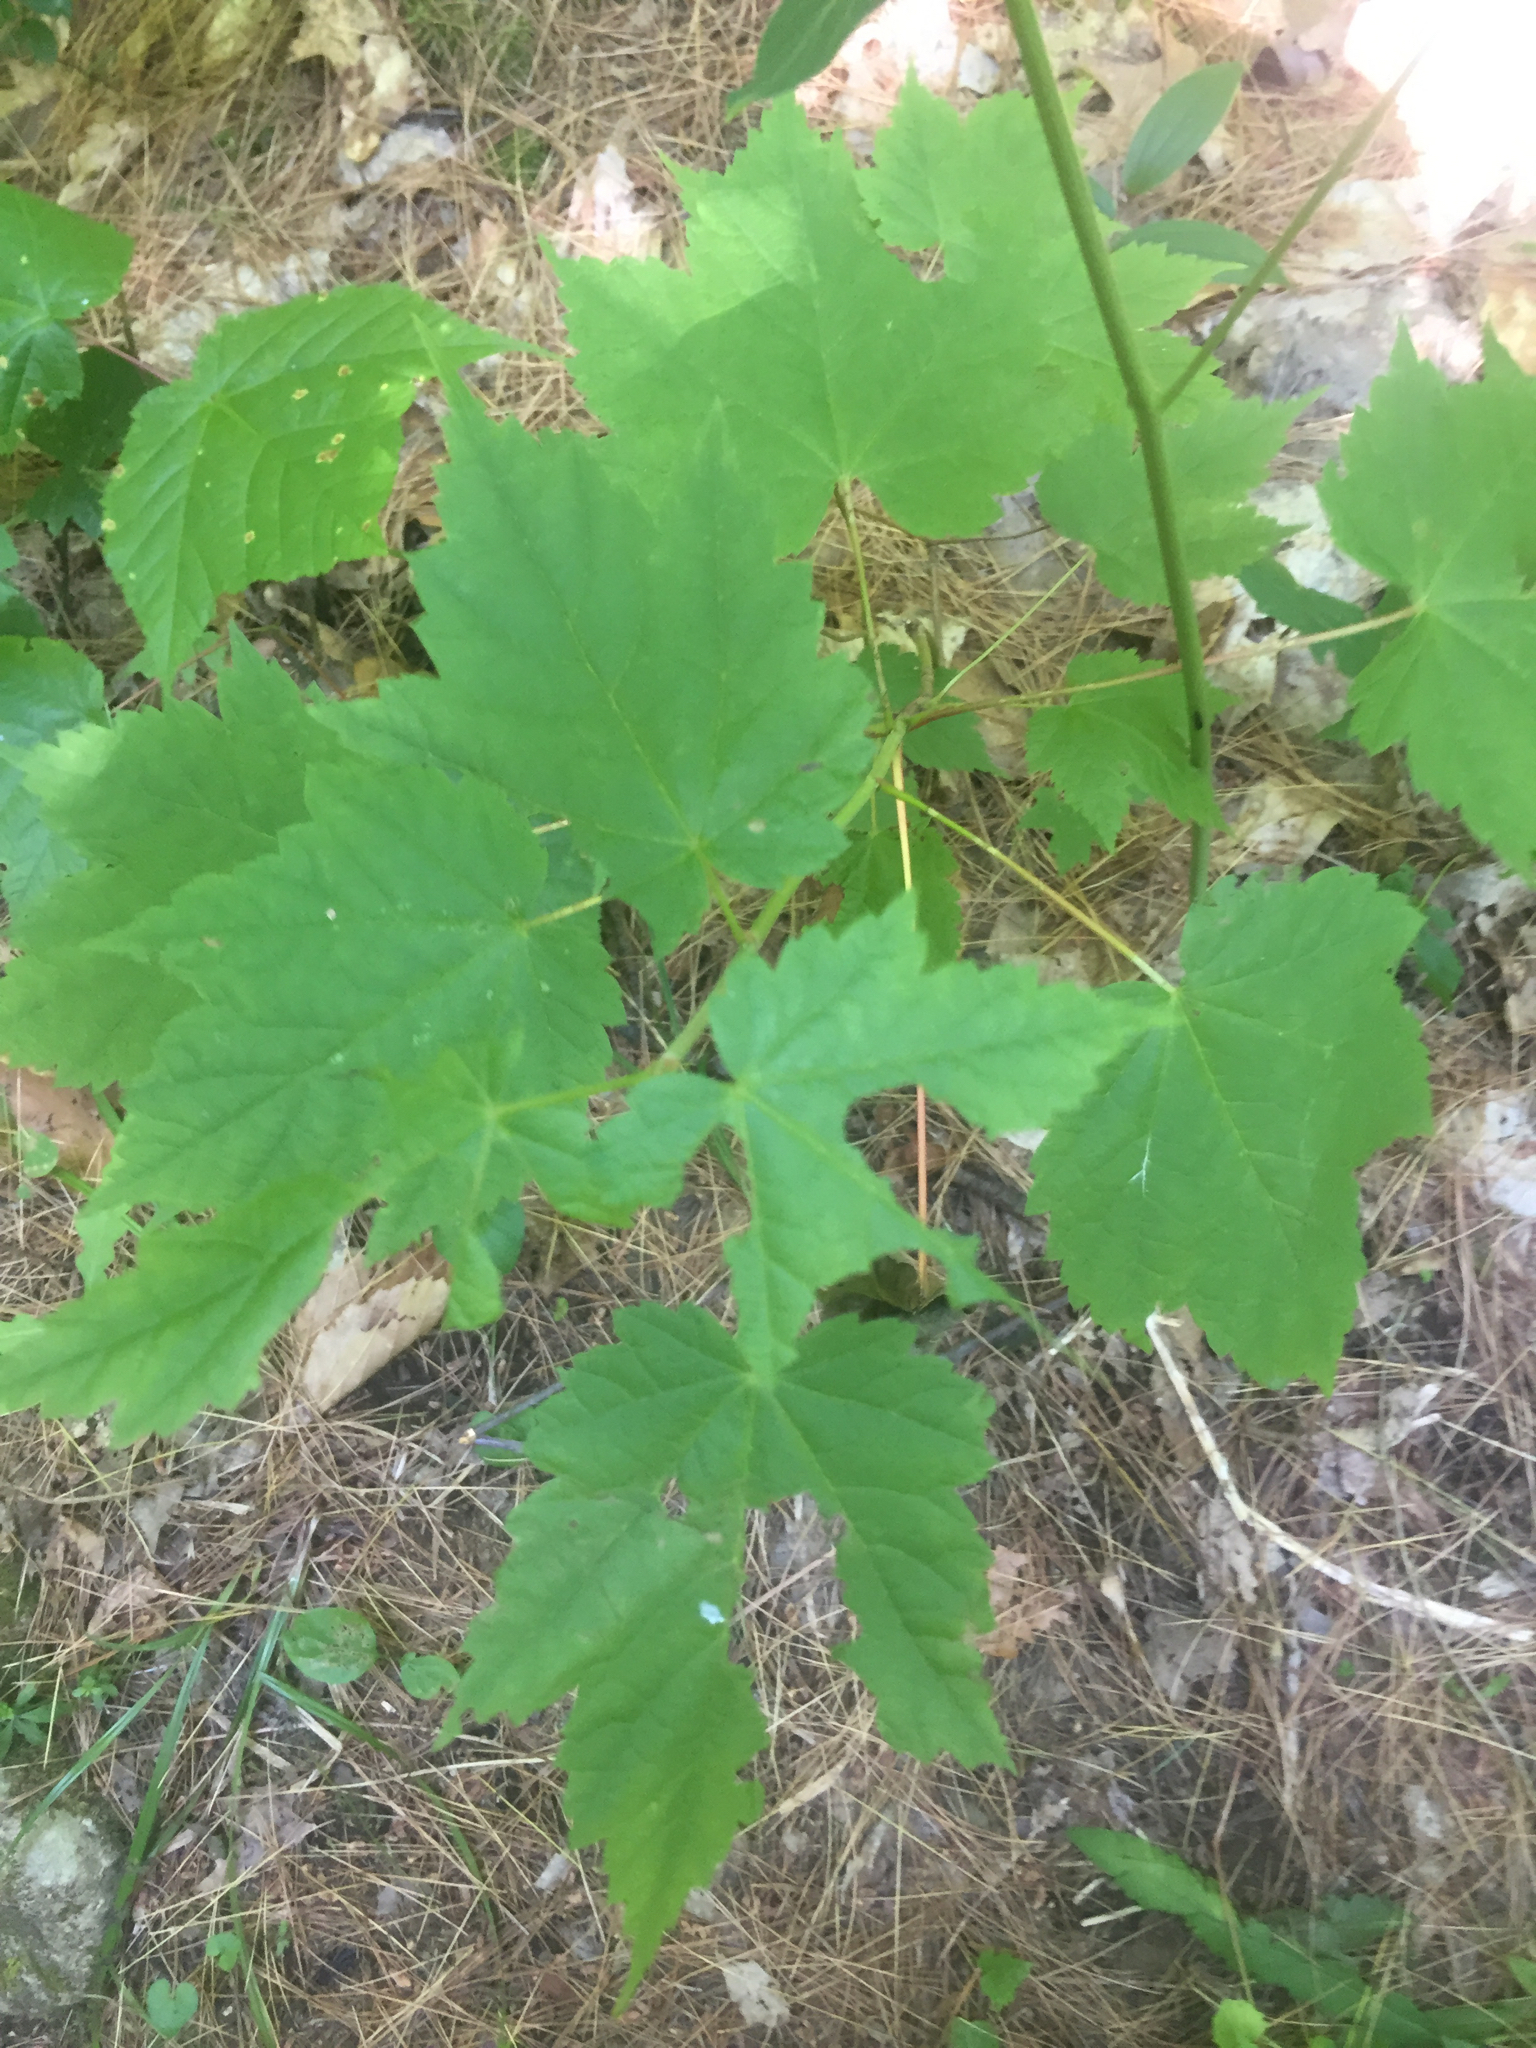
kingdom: Plantae
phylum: Tracheophyta
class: Magnoliopsida
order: Sapindales
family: Sapindaceae
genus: Acer
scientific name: Acer spicatum
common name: Mountain maple
